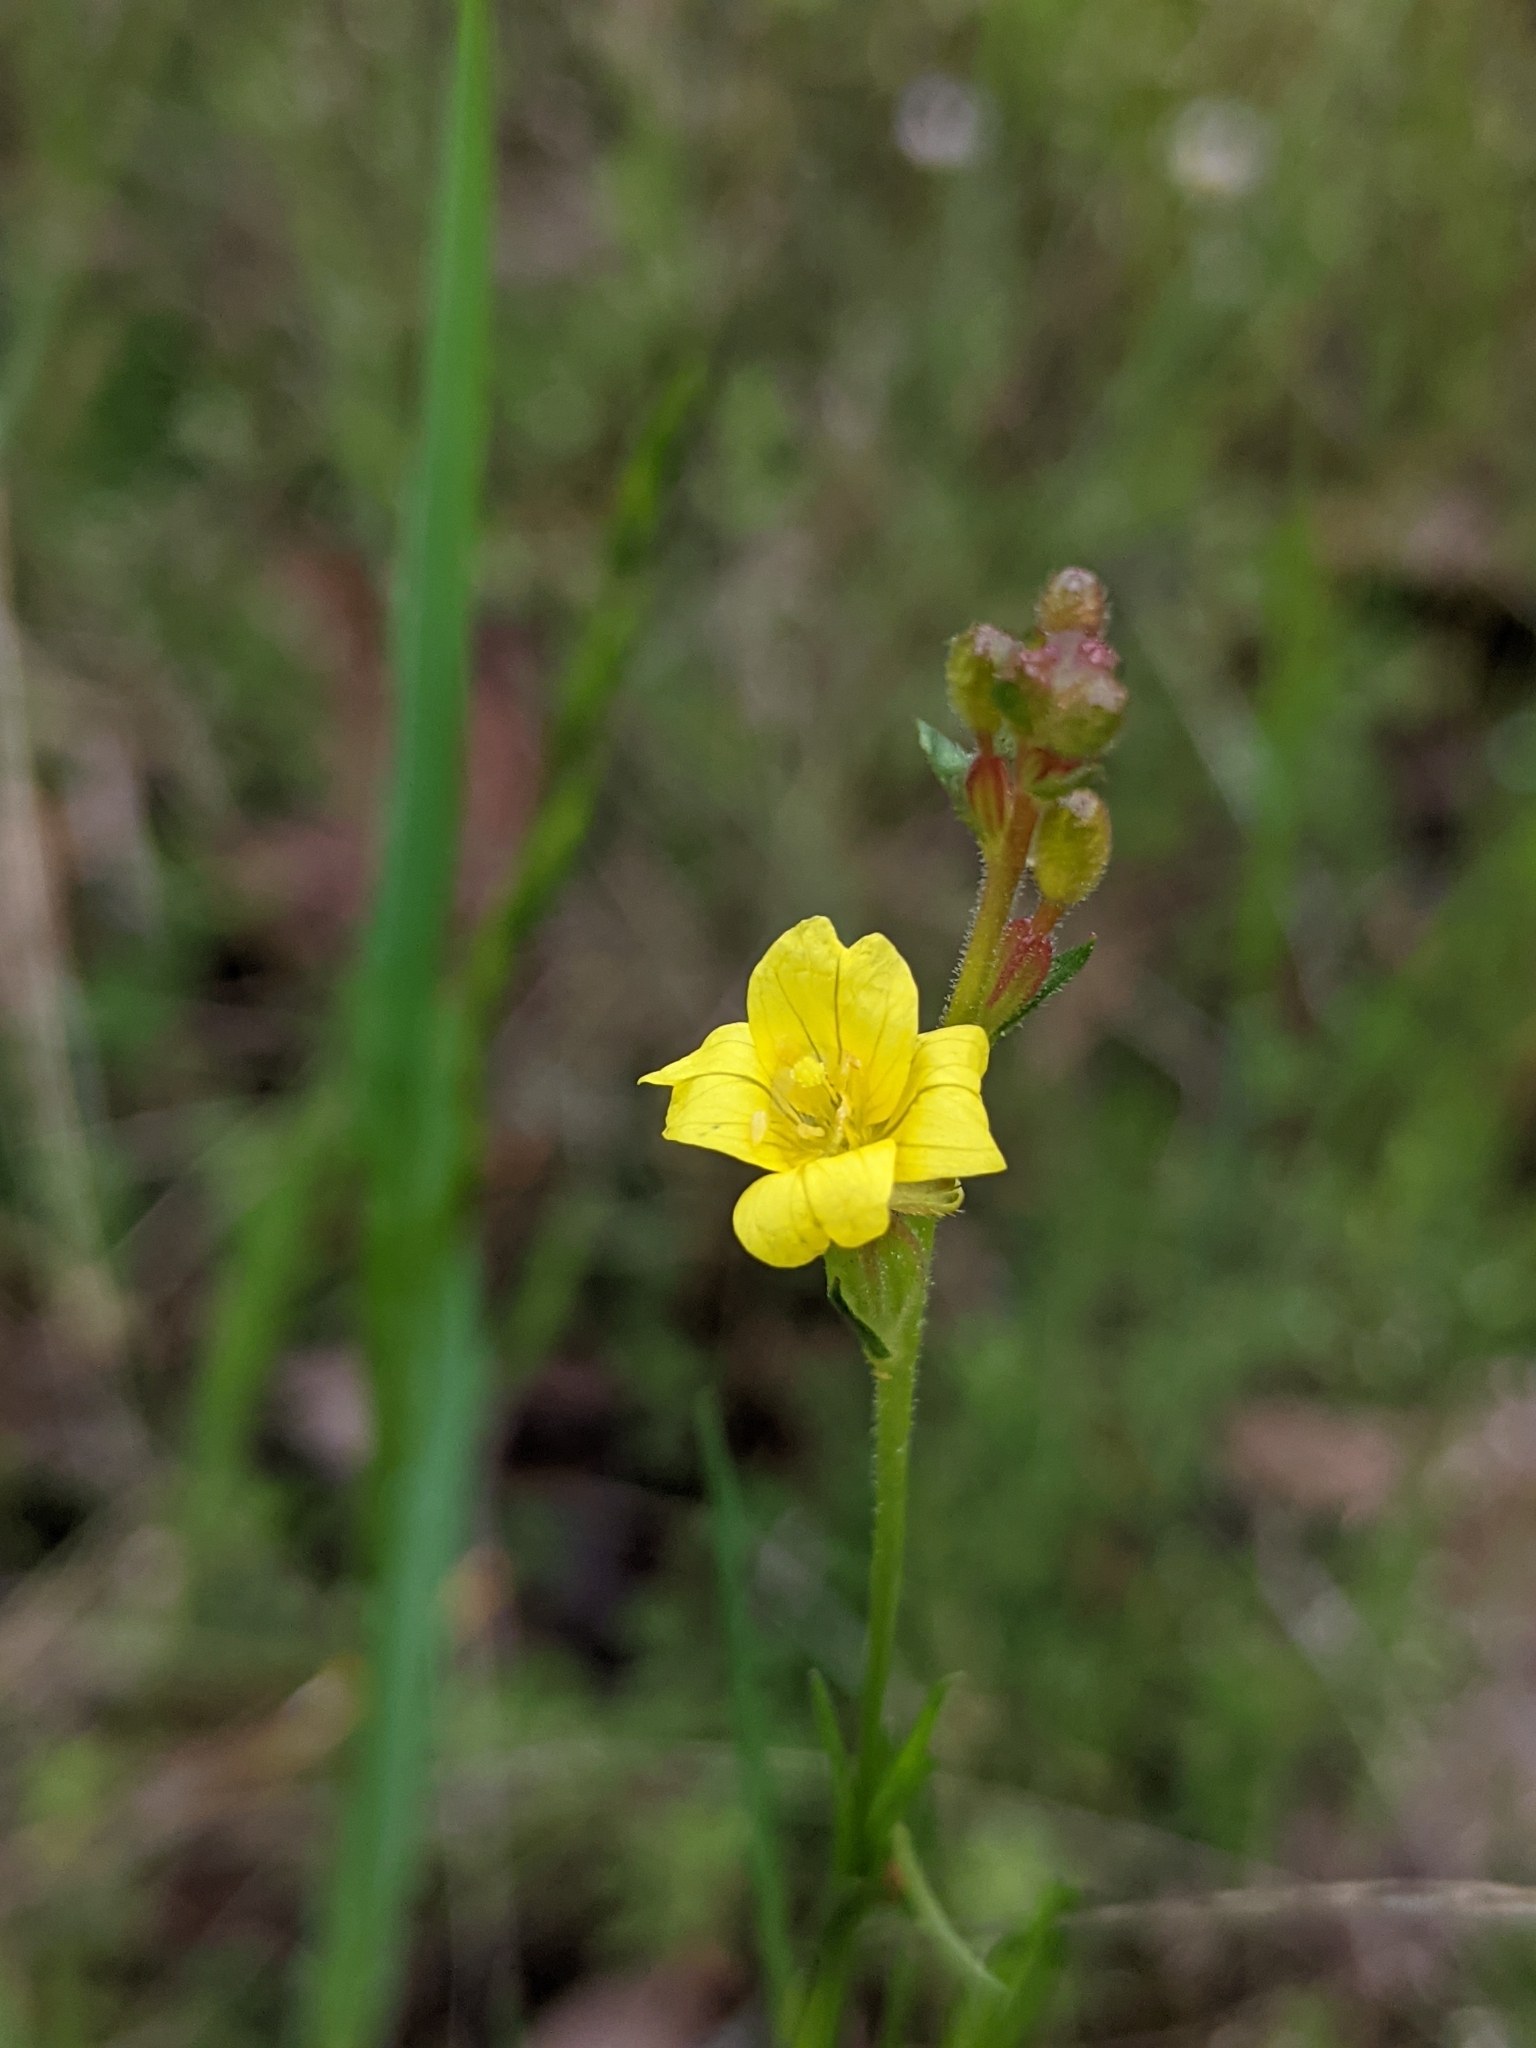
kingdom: Plantae
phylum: Tracheophyta
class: Magnoliopsida
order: Myrtales
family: Onagraceae
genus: Oenothera
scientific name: Oenothera linifolia
